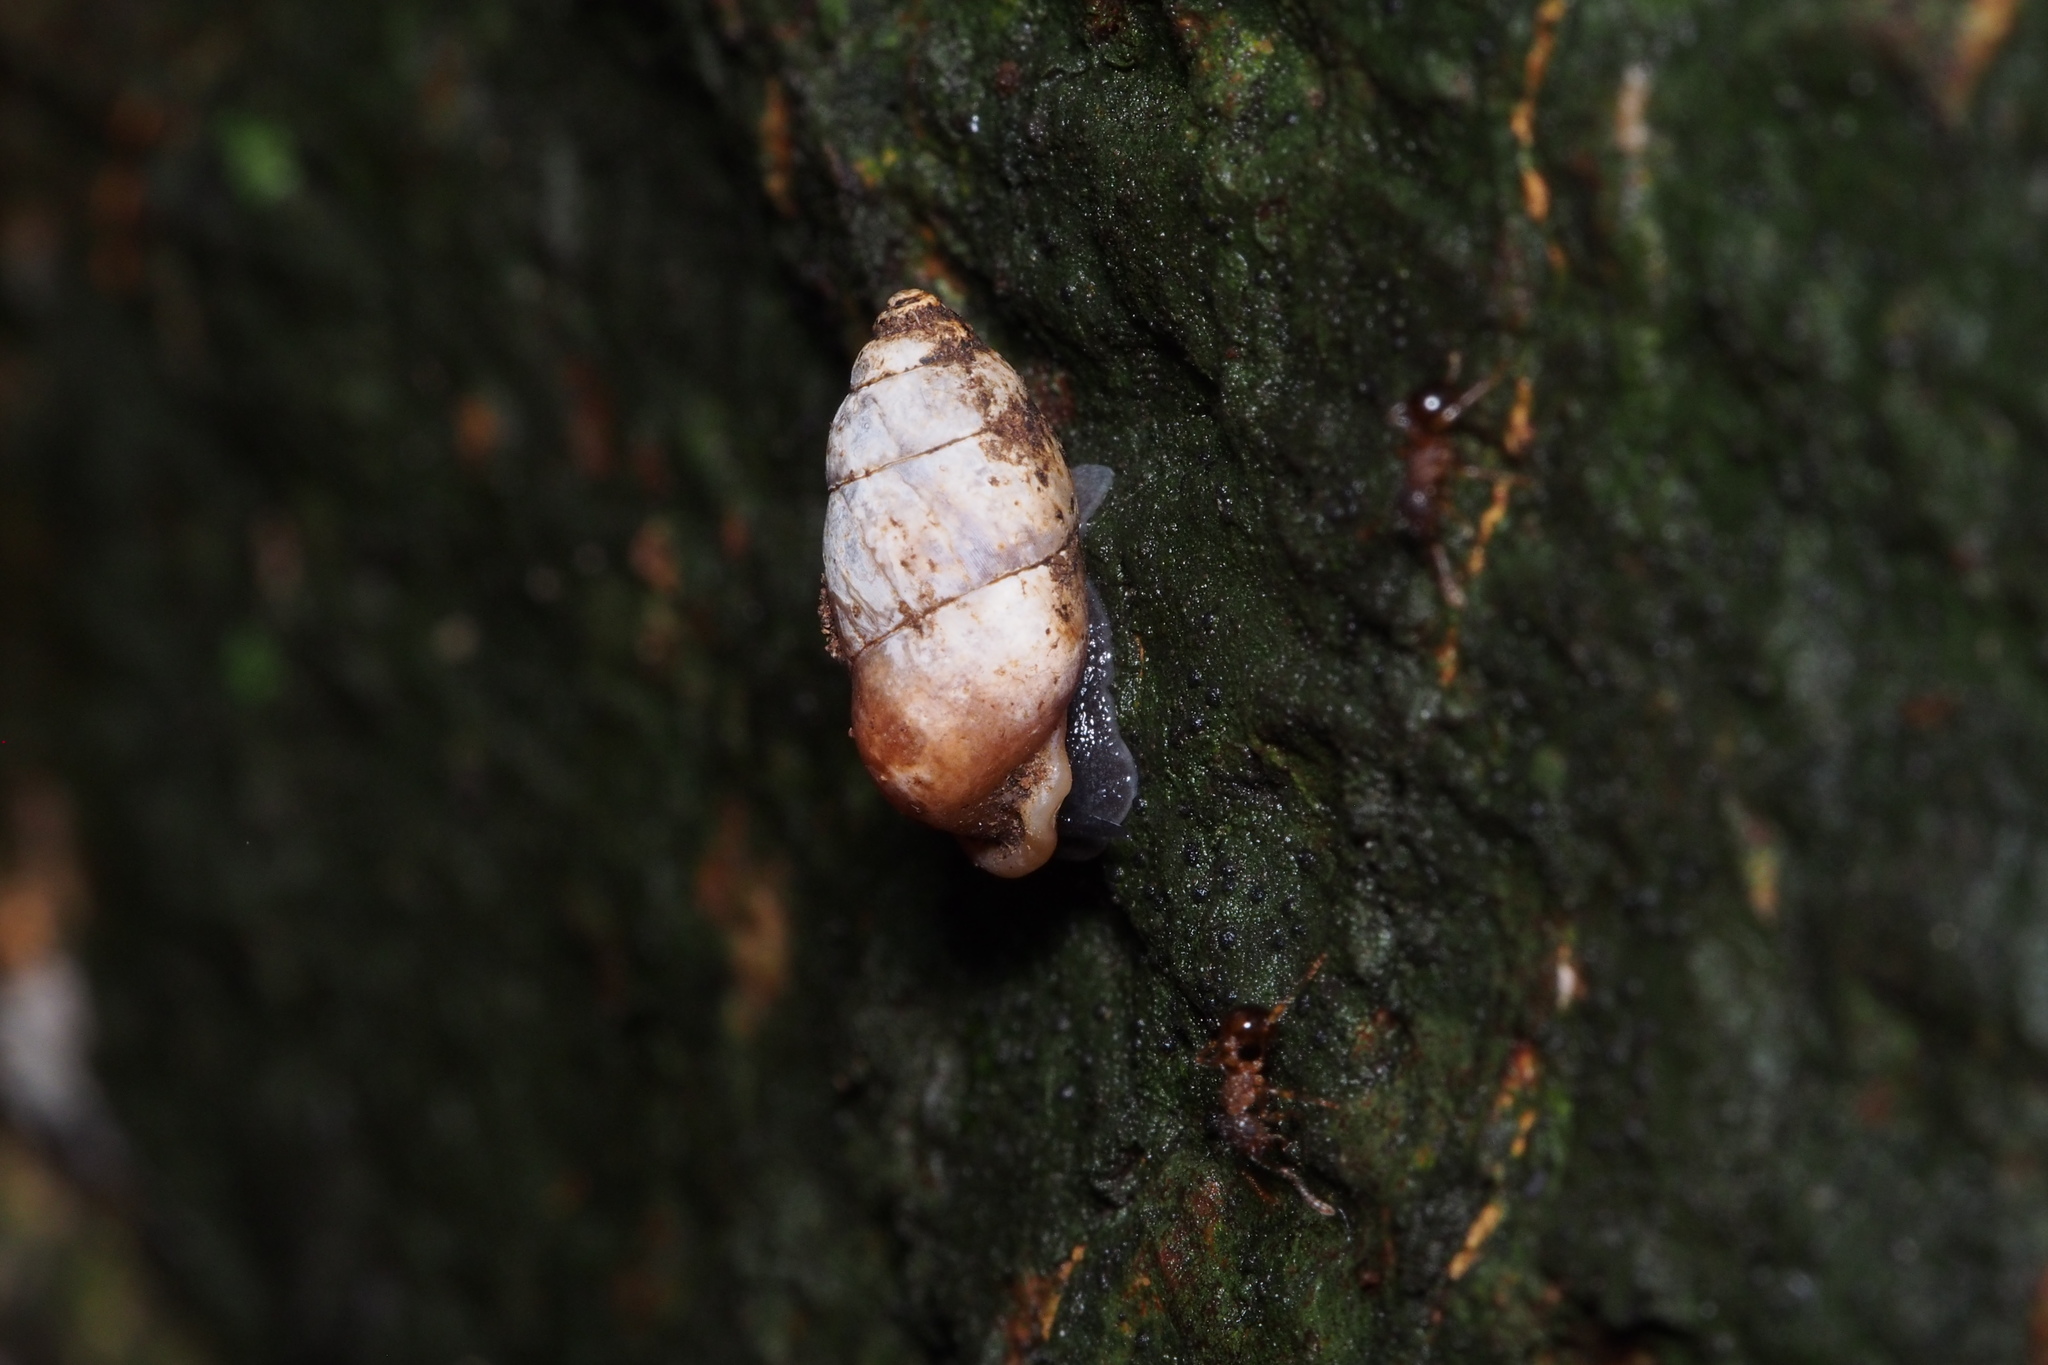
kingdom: Animalia
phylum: Mollusca
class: Gastropoda
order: Architaenioglossa
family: Pupinidae
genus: Pupinella
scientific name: Pupinella rufa
